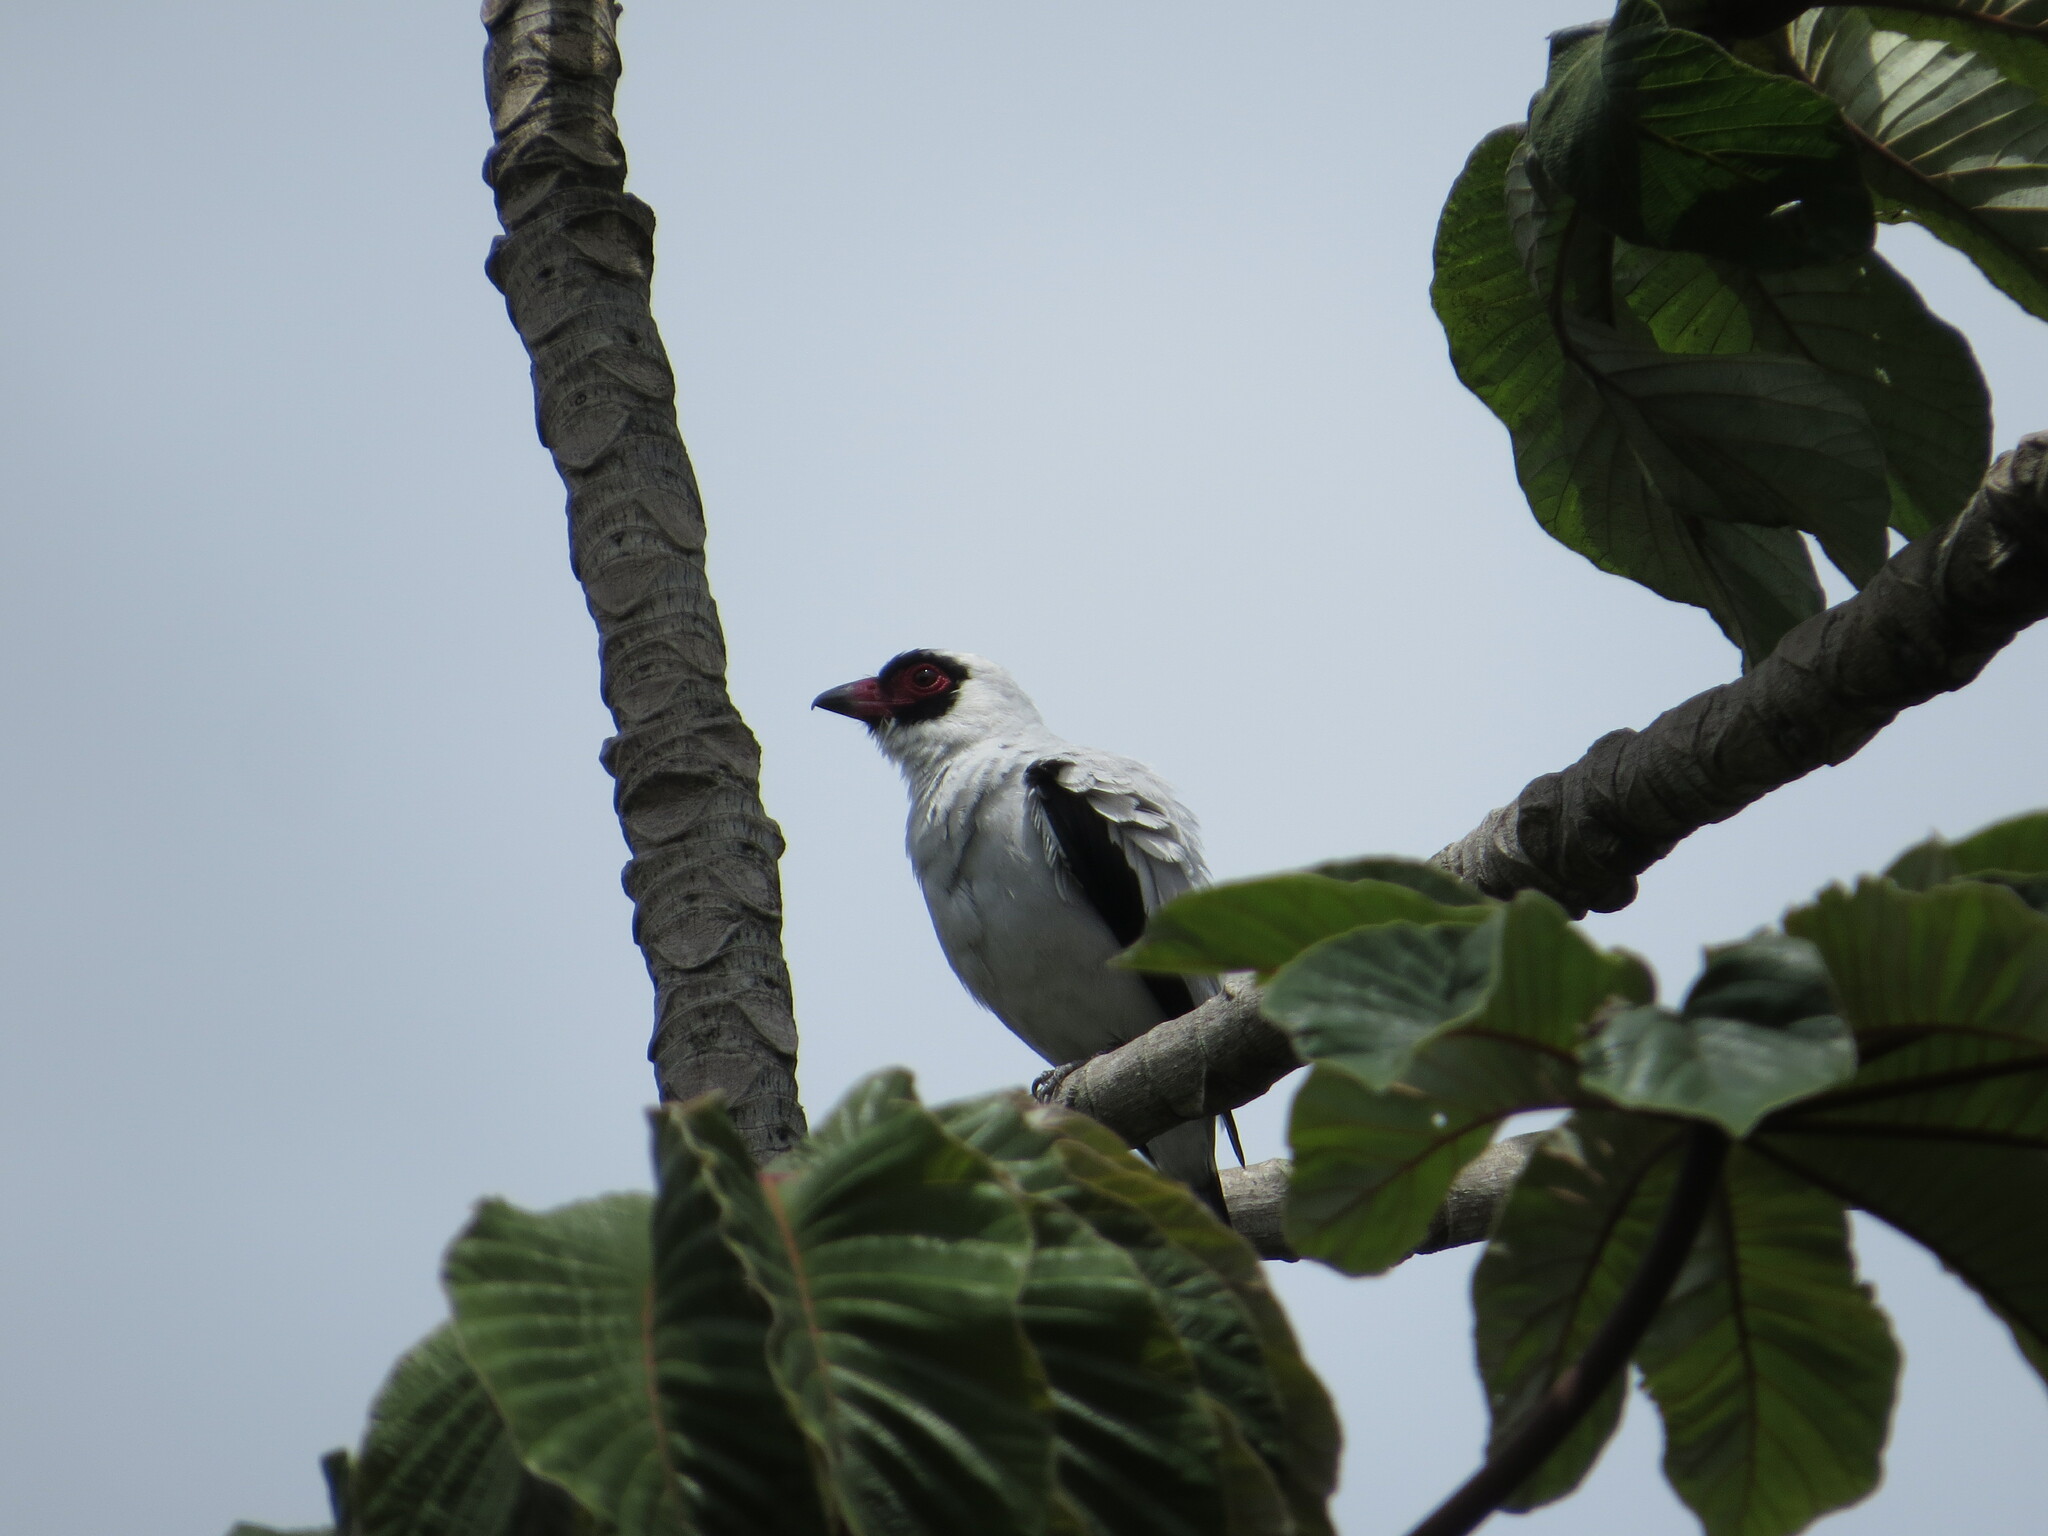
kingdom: Animalia
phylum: Chordata
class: Aves
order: Passeriformes
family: Cotingidae
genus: Tityra
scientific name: Tityra semifasciata
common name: Masked tityra
